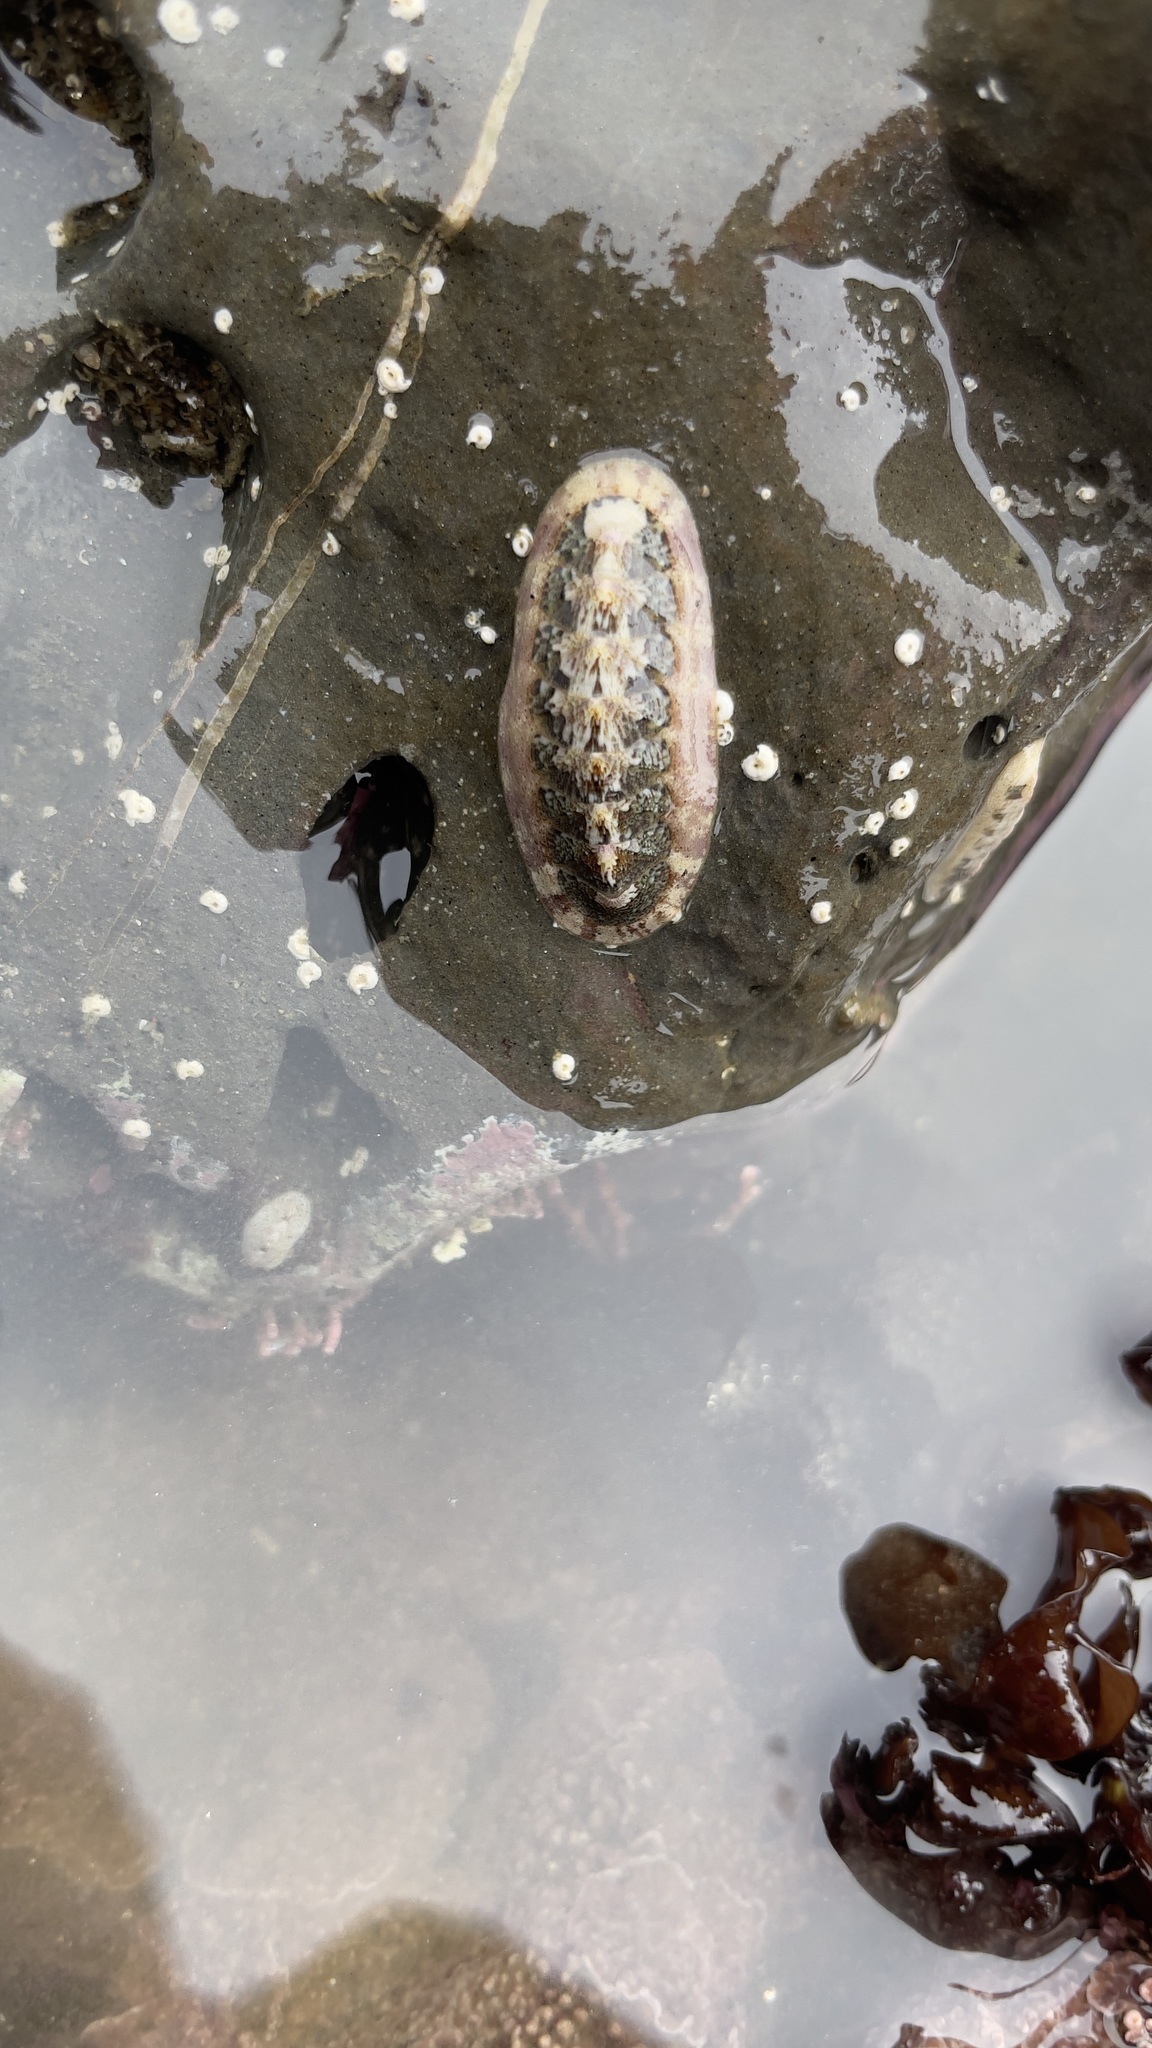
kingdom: Animalia
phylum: Mollusca
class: Polyplacophora
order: Chitonida
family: Ischnochitonidae
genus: Stenoplax
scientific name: Stenoplax heathiana
